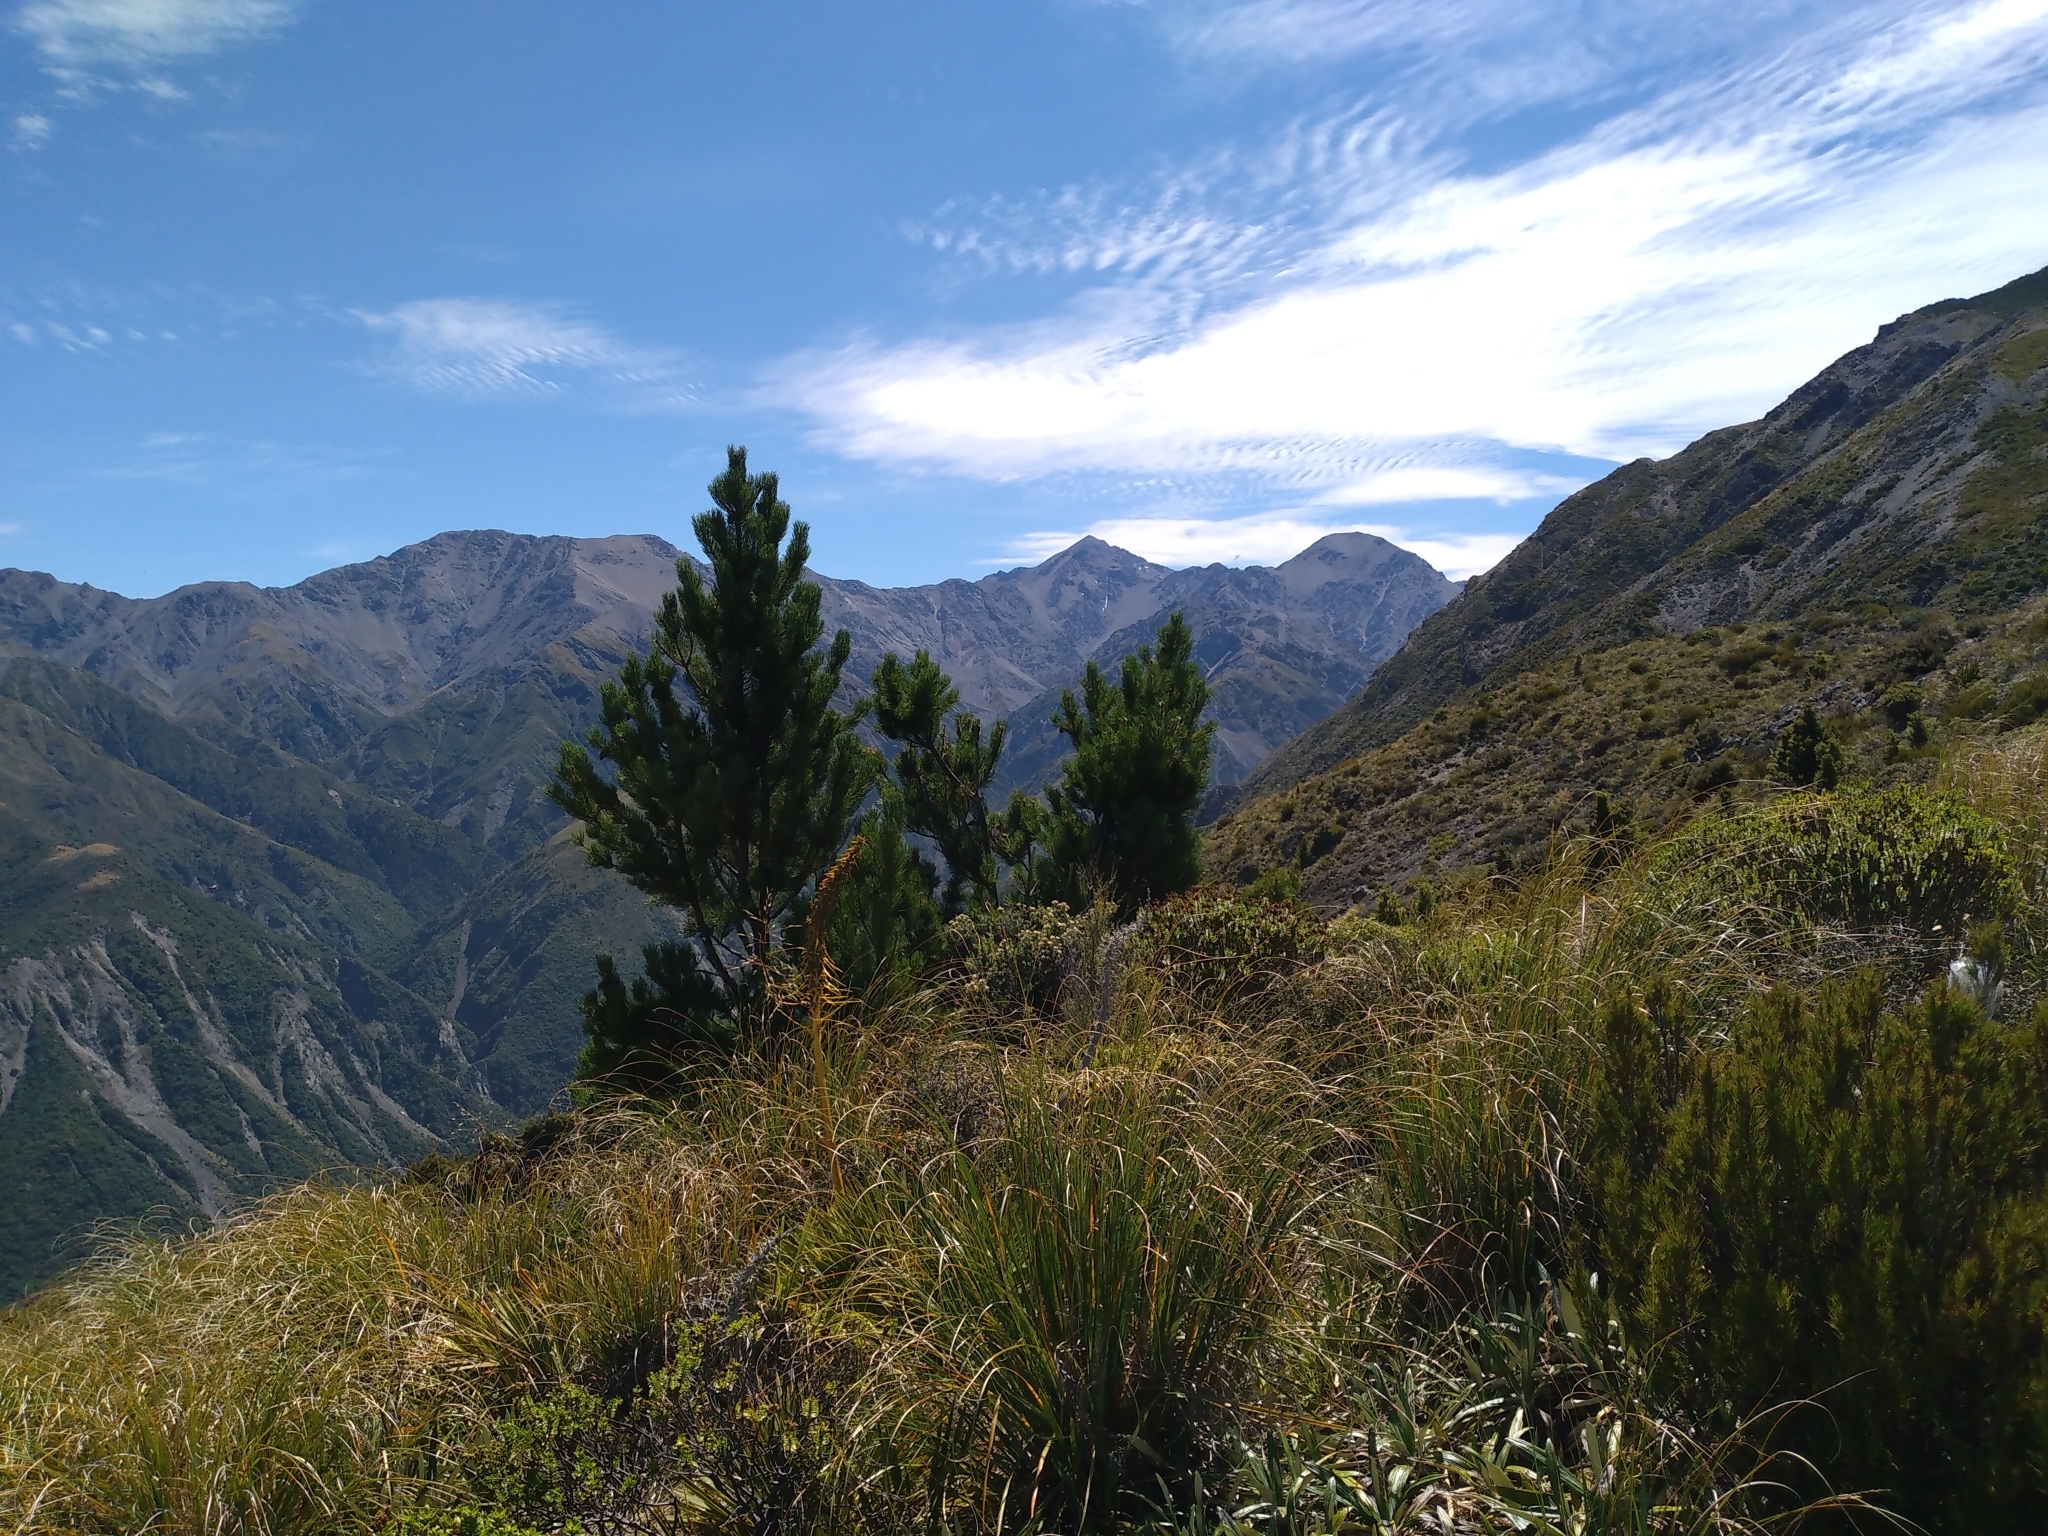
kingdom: Plantae
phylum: Tracheophyta
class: Pinopsida
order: Pinales
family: Pinaceae
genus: Pinus
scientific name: Pinus contorta
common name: Lodgepole pine
